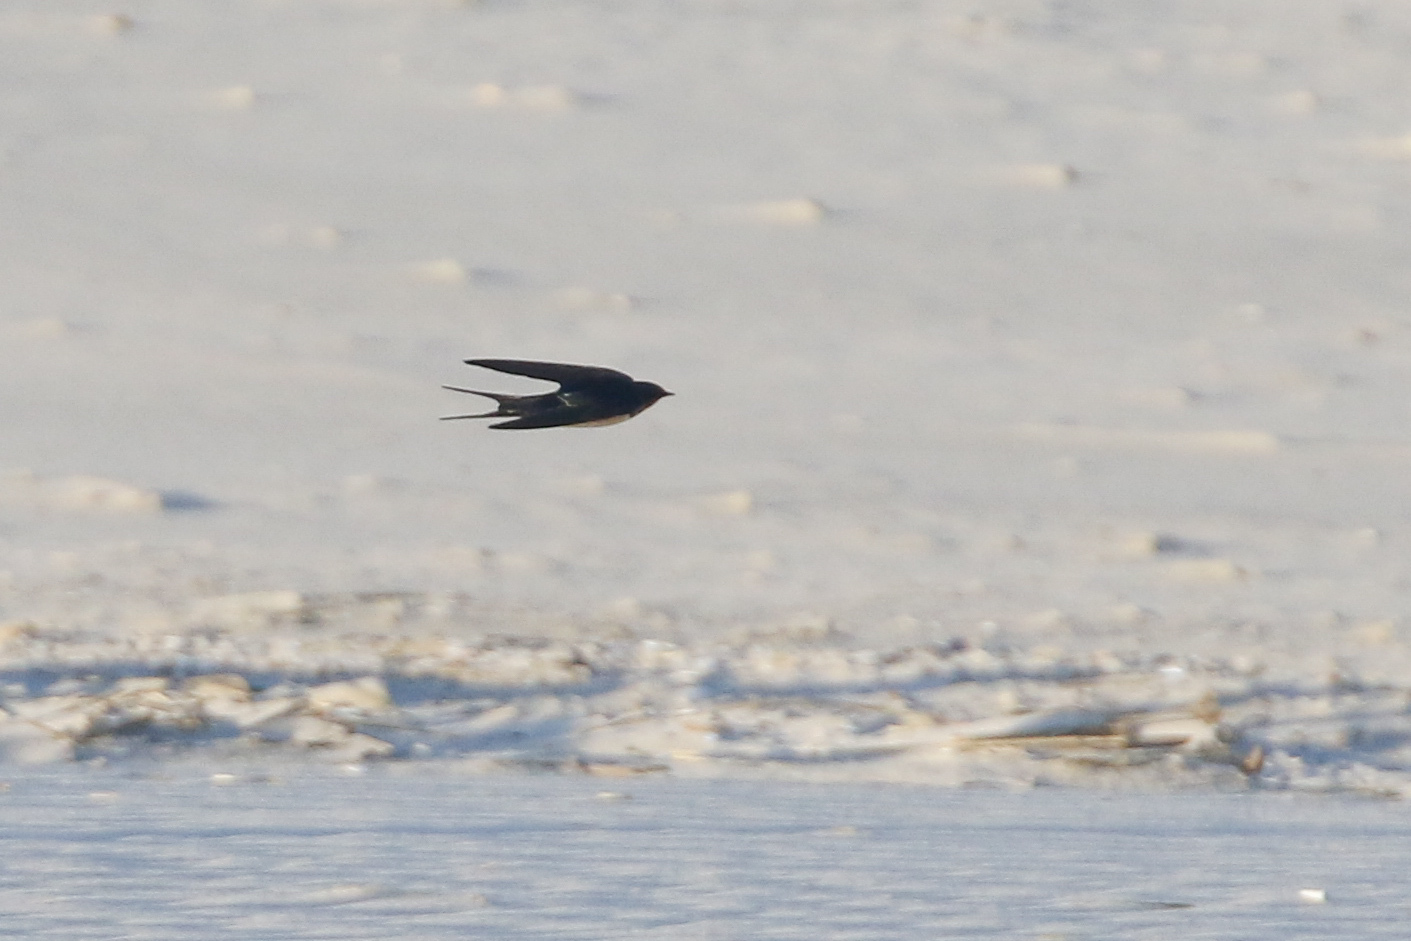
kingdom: Animalia
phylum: Chordata
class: Aves
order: Passeriformes
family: Hirundinidae
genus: Hirundo
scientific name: Hirundo rustica
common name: Barn swallow
